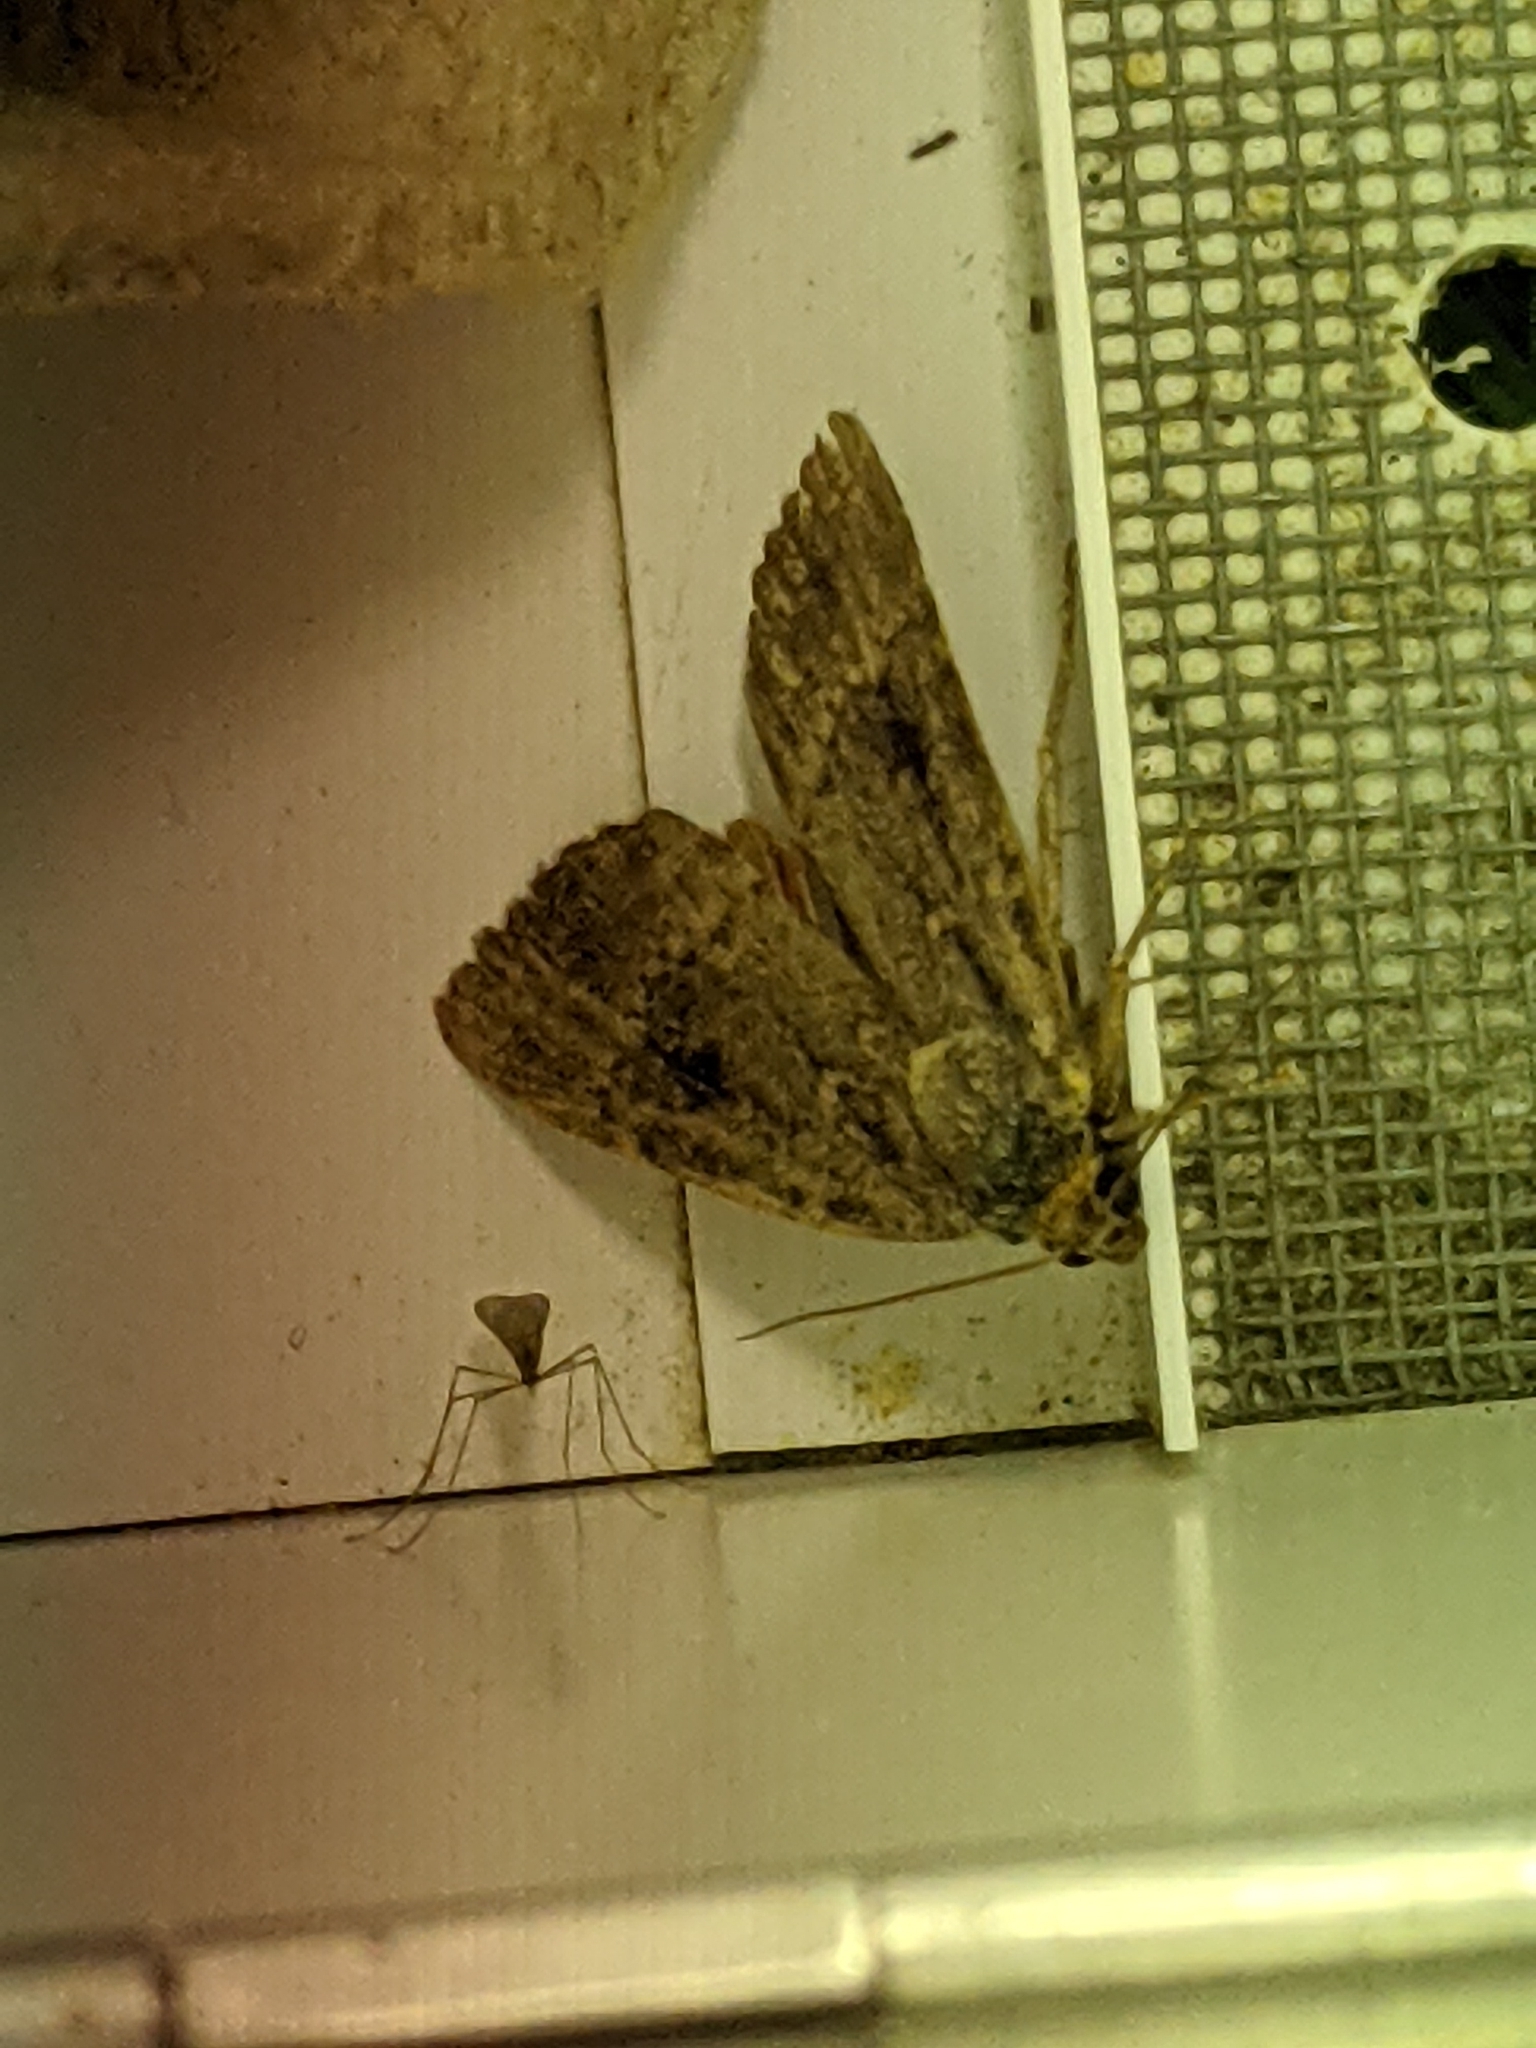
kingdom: Animalia
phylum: Arthropoda
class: Insecta
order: Lepidoptera
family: Noctuidae
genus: Amphipyra
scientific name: Amphipyra
